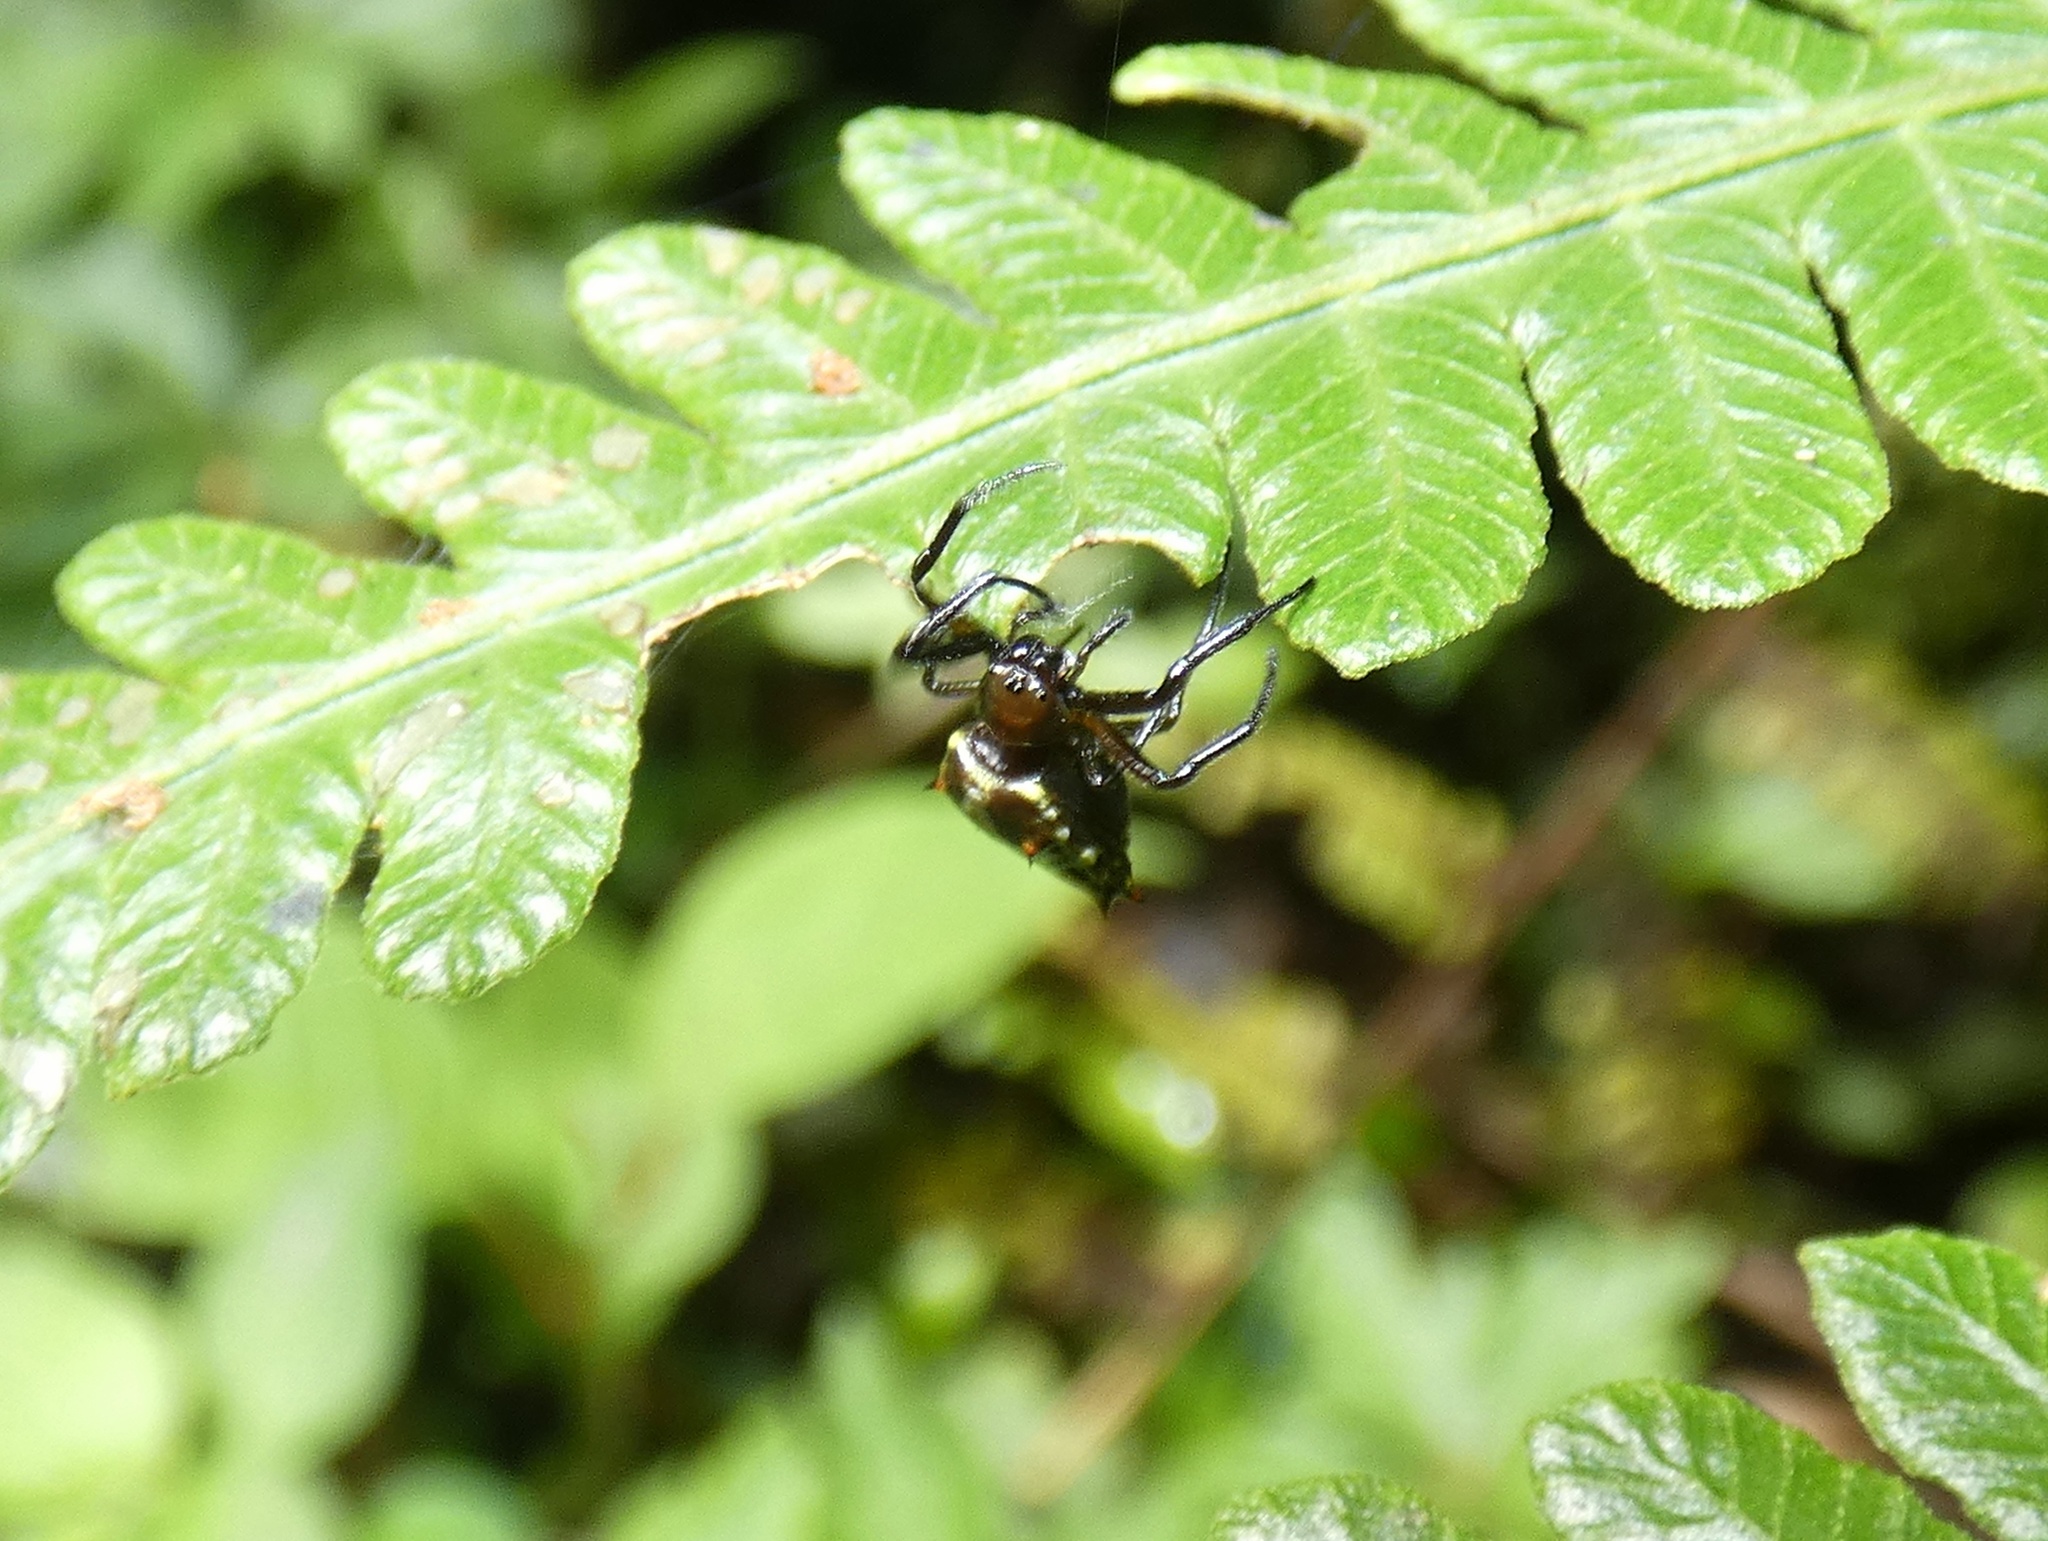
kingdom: Animalia
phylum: Arthropoda
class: Arachnida
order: Araneae
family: Araneidae
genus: Micrathena
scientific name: Micrathena fidelis
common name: Orb weavers
